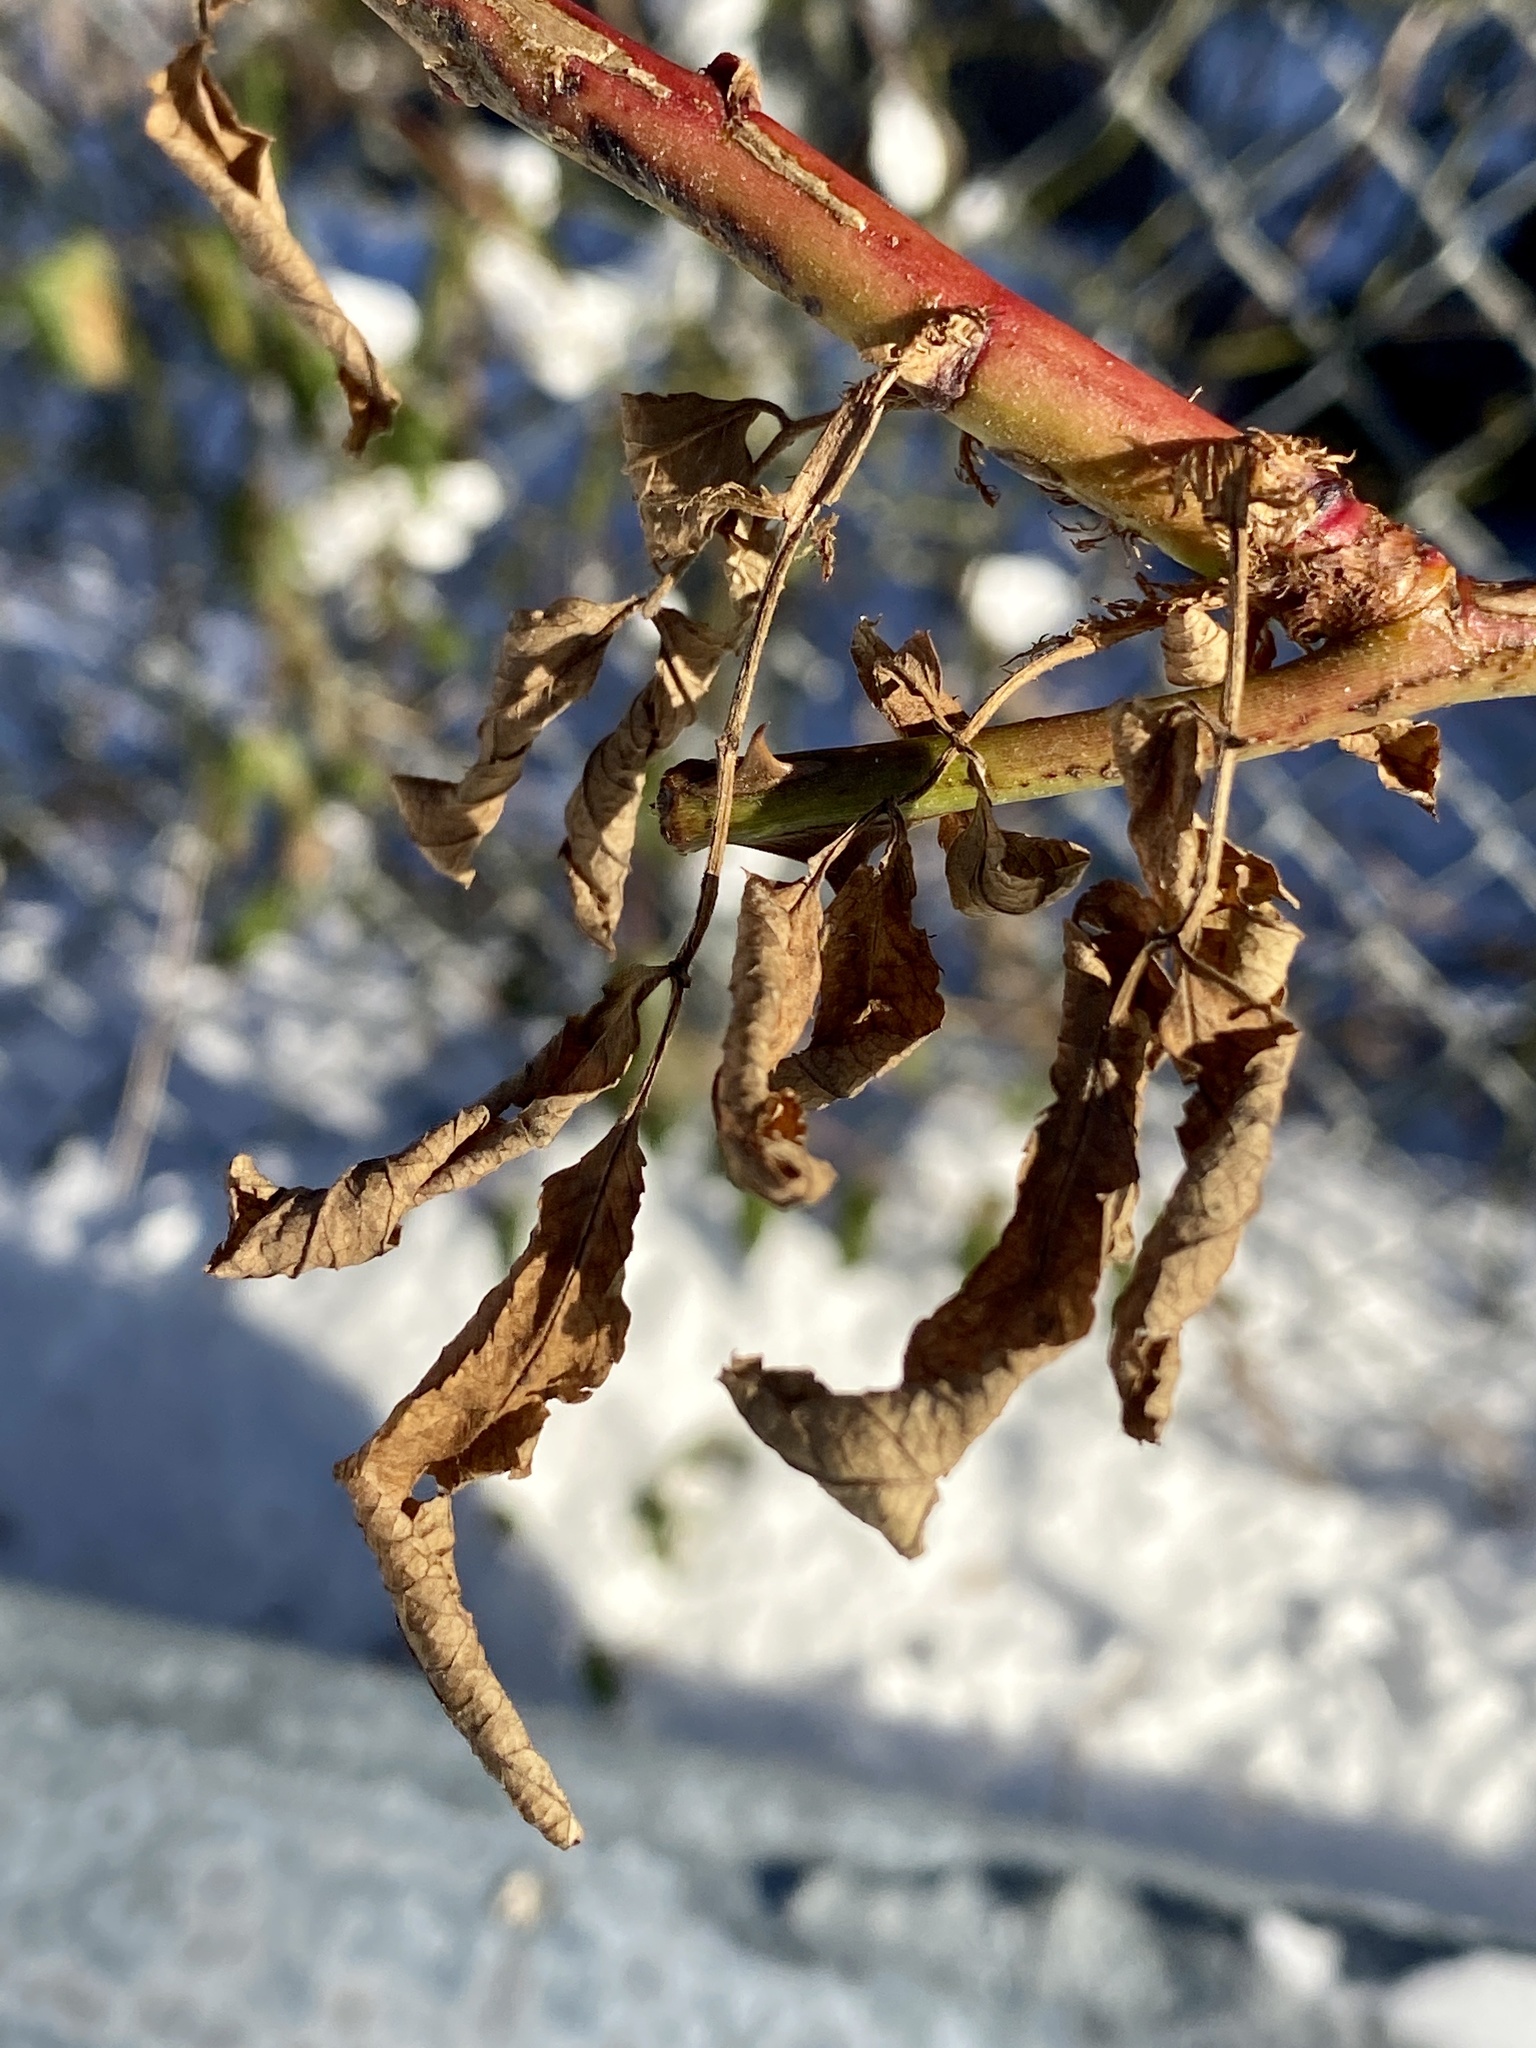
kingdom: Viruses
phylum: Negarnaviricota
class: Ellioviricetes
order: Bunyavirales
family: Fimoviridae
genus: Emaravirus
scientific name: Emaravirus rosae
